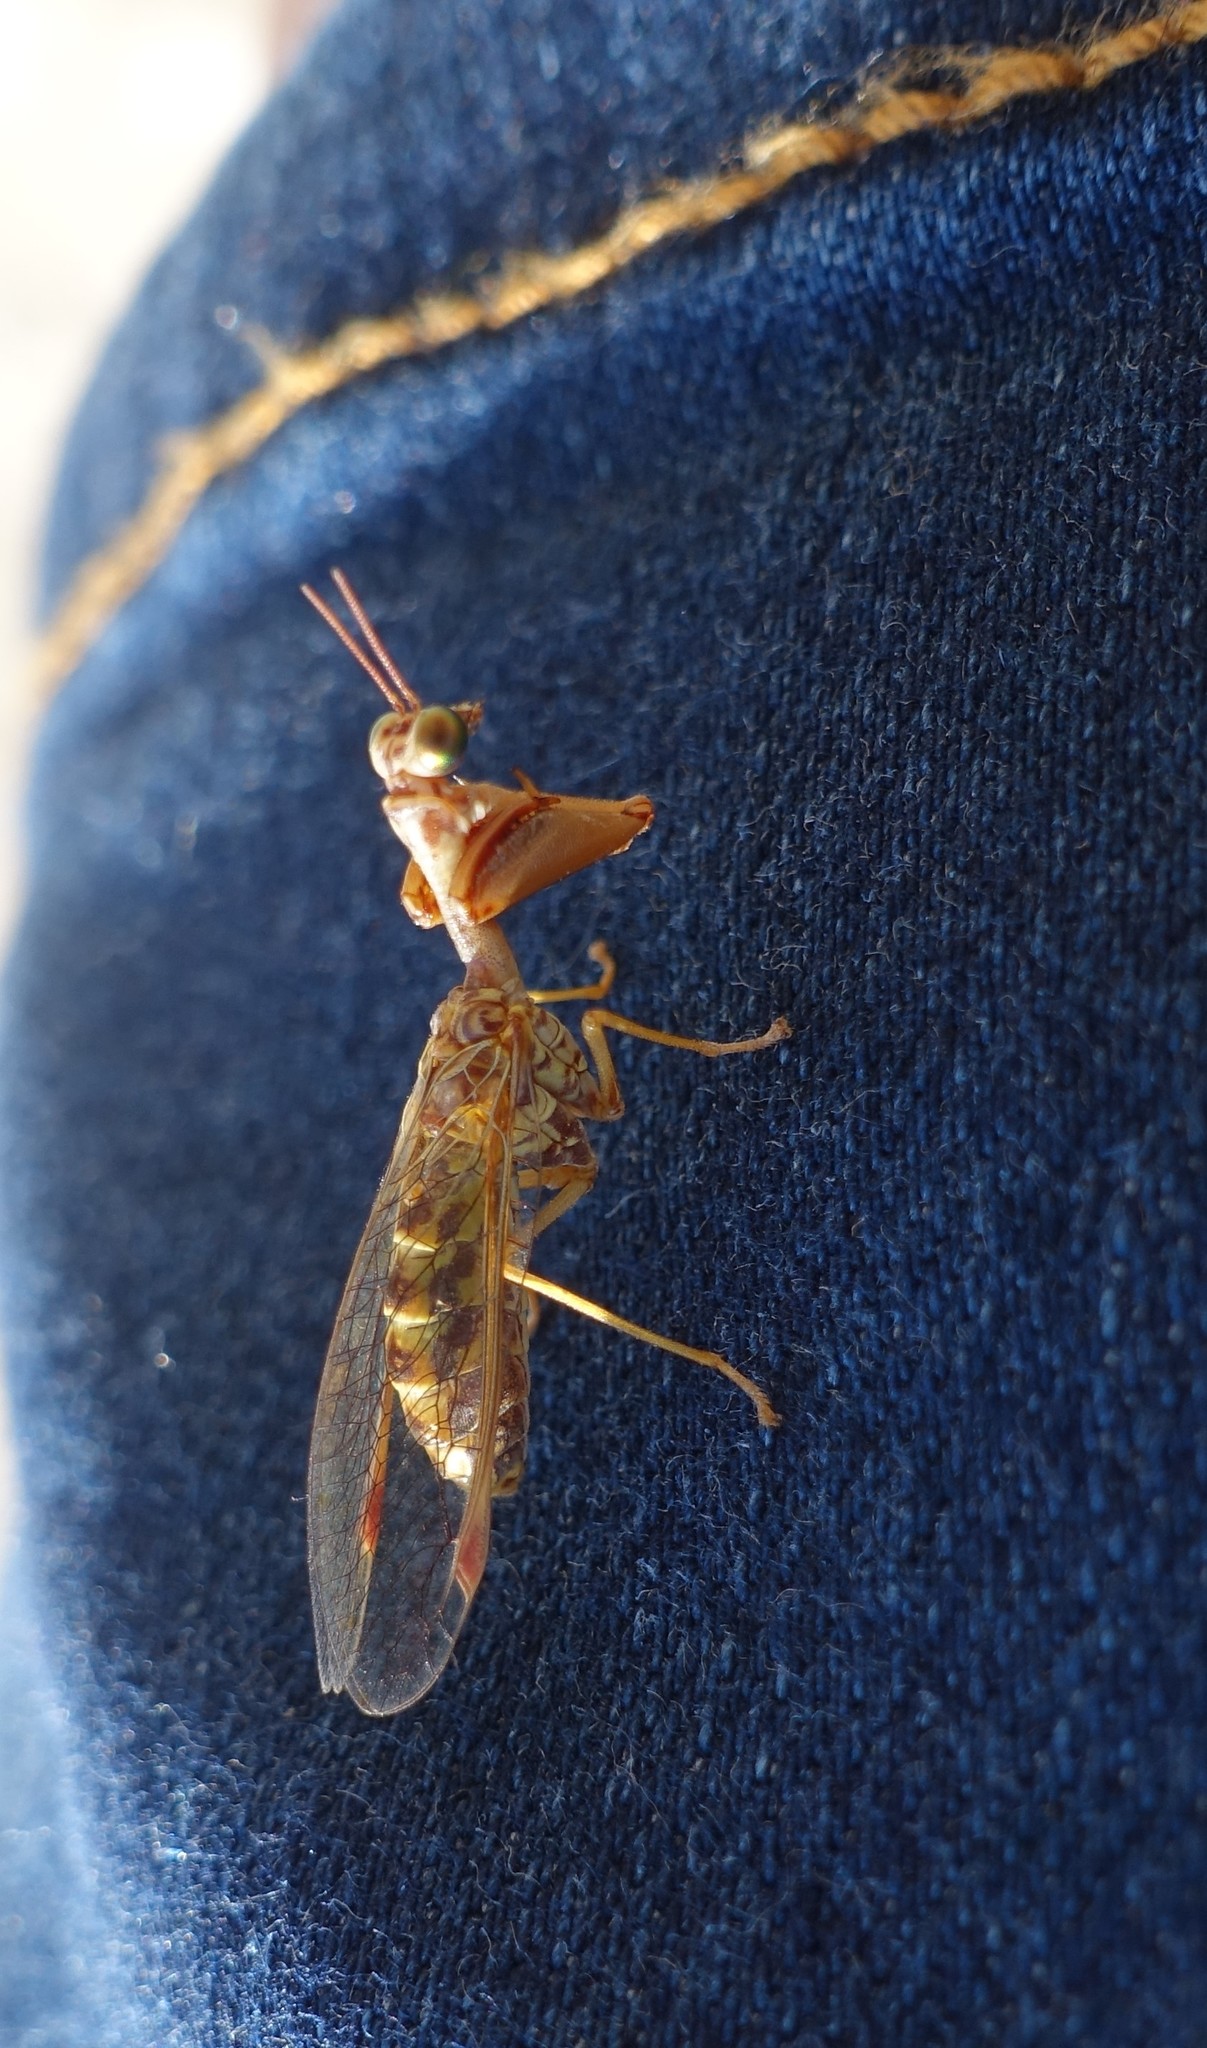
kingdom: Animalia
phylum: Arthropoda
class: Insecta
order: Neuroptera
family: Mantispidae
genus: Mantispa
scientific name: Mantispa styriaca
